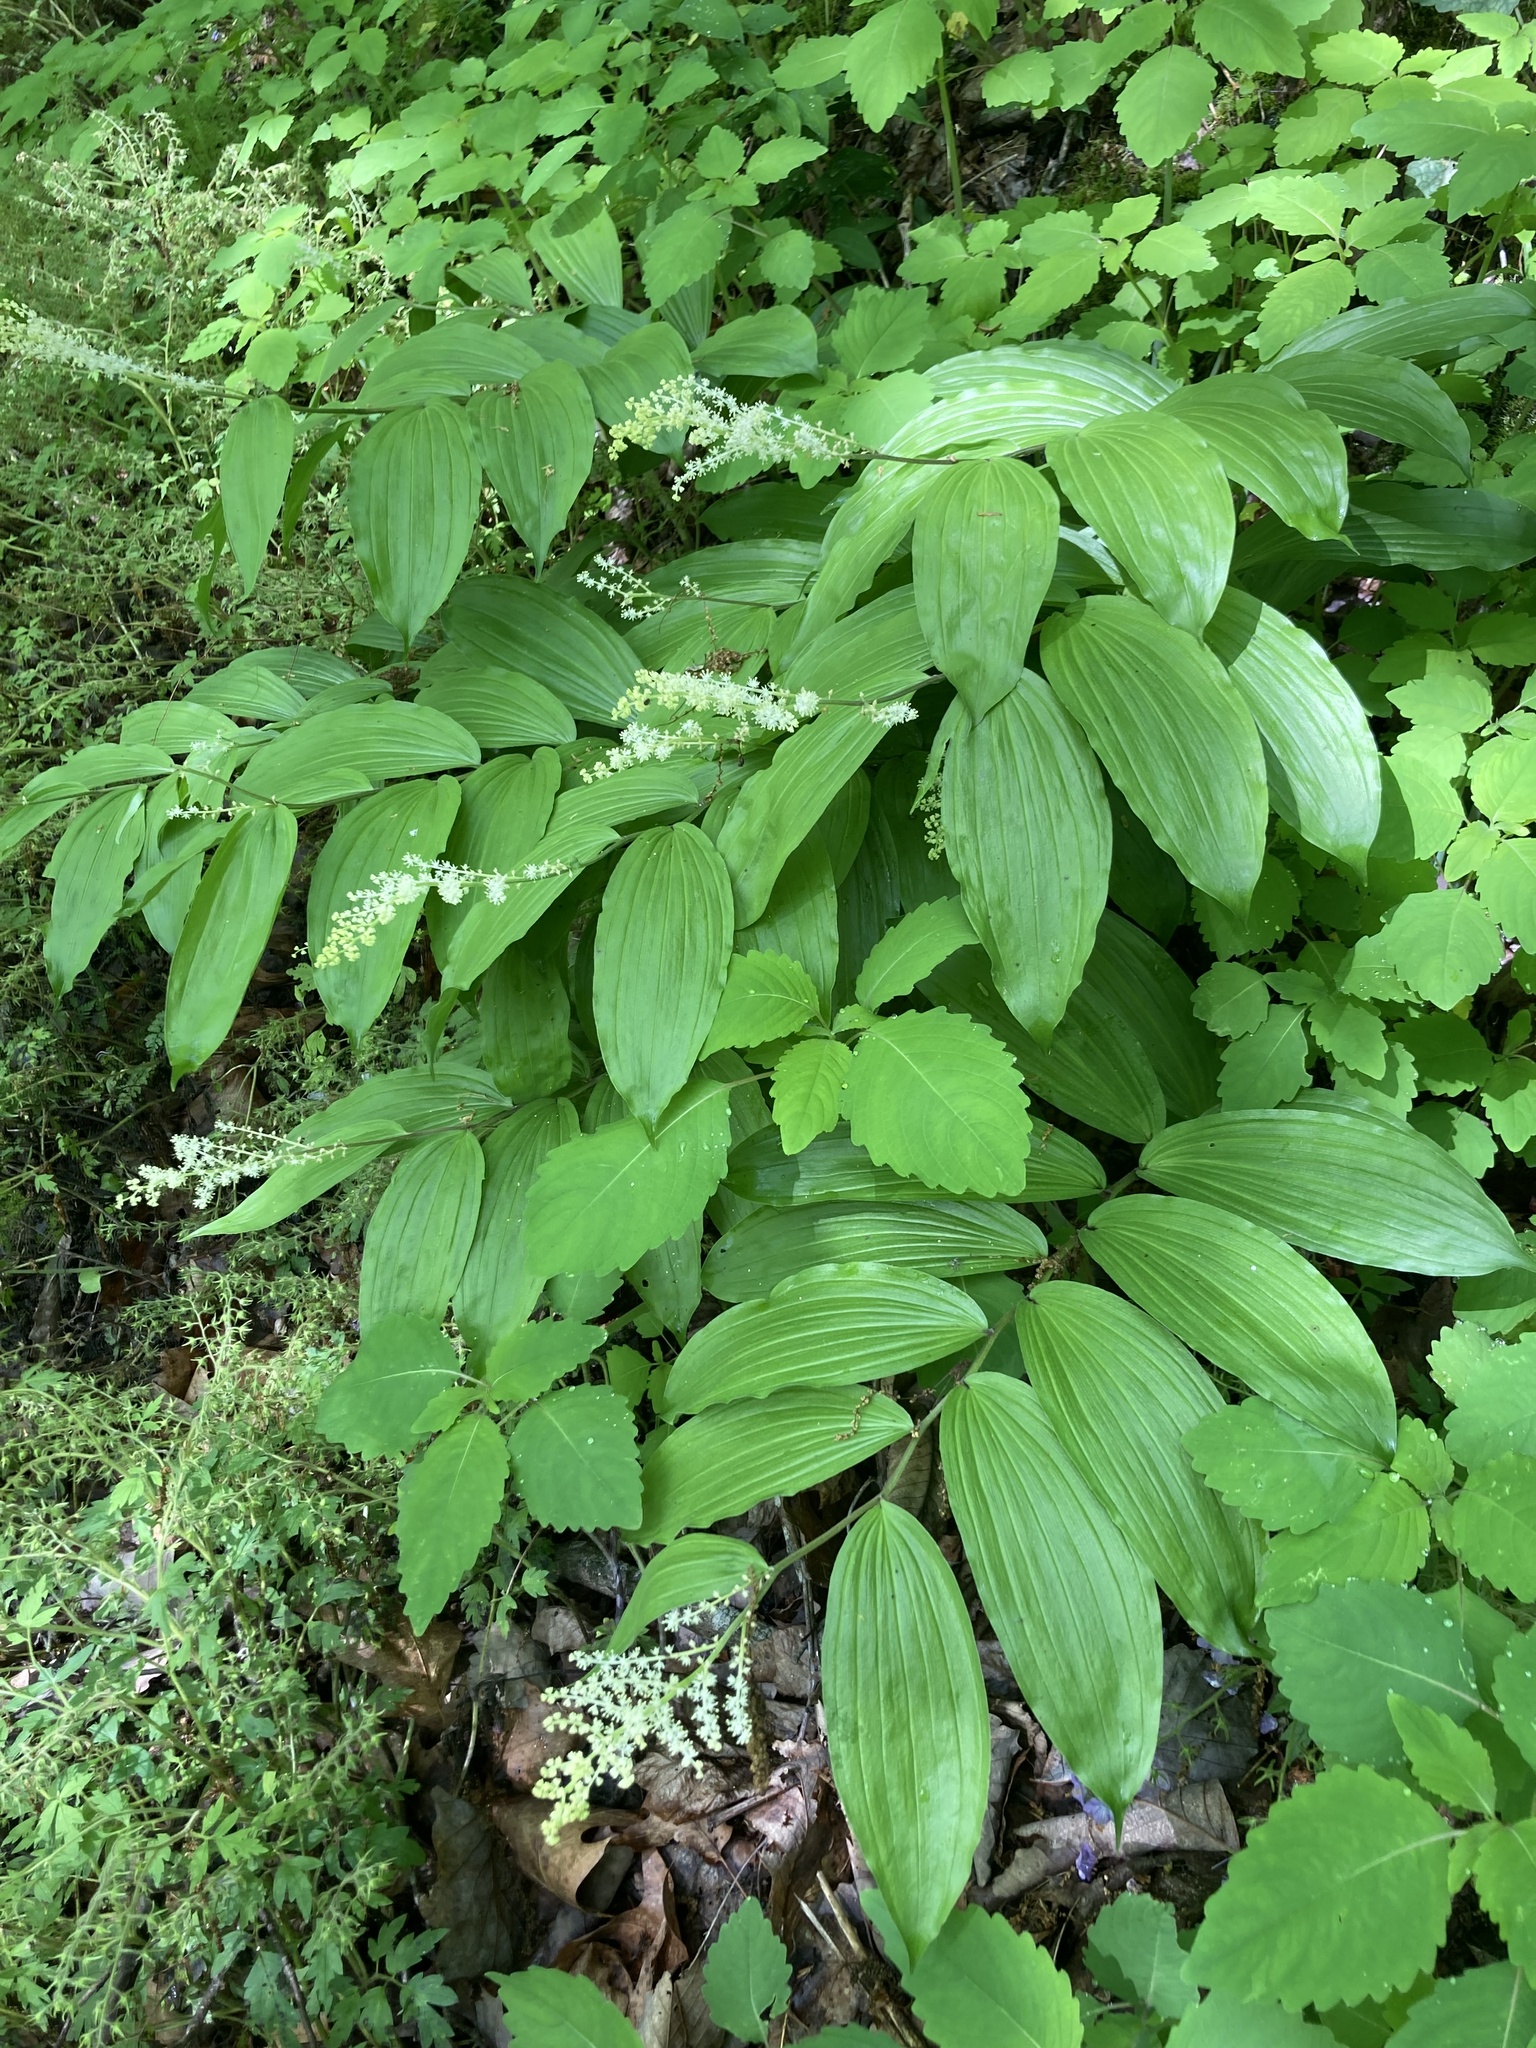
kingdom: Plantae
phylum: Tracheophyta
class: Liliopsida
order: Asparagales
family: Asparagaceae
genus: Maianthemum
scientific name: Maianthemum racemosum
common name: False spikenard
